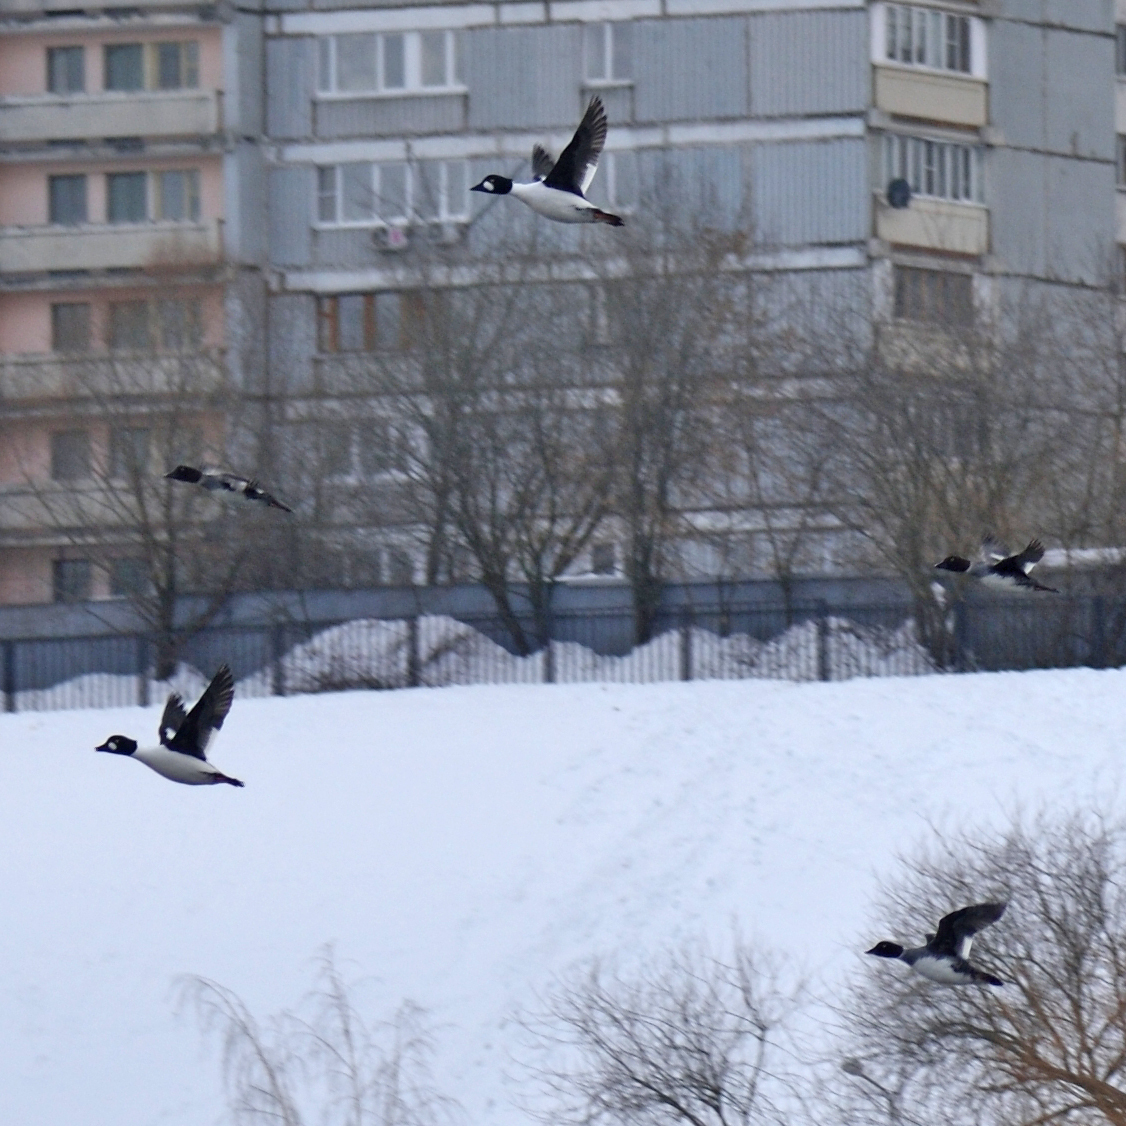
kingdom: Animalia
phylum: Chordata
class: Aves
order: Anseriformes
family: Anatidae
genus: Bucephala
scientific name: Bucephala clangula
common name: Common goldeneye
